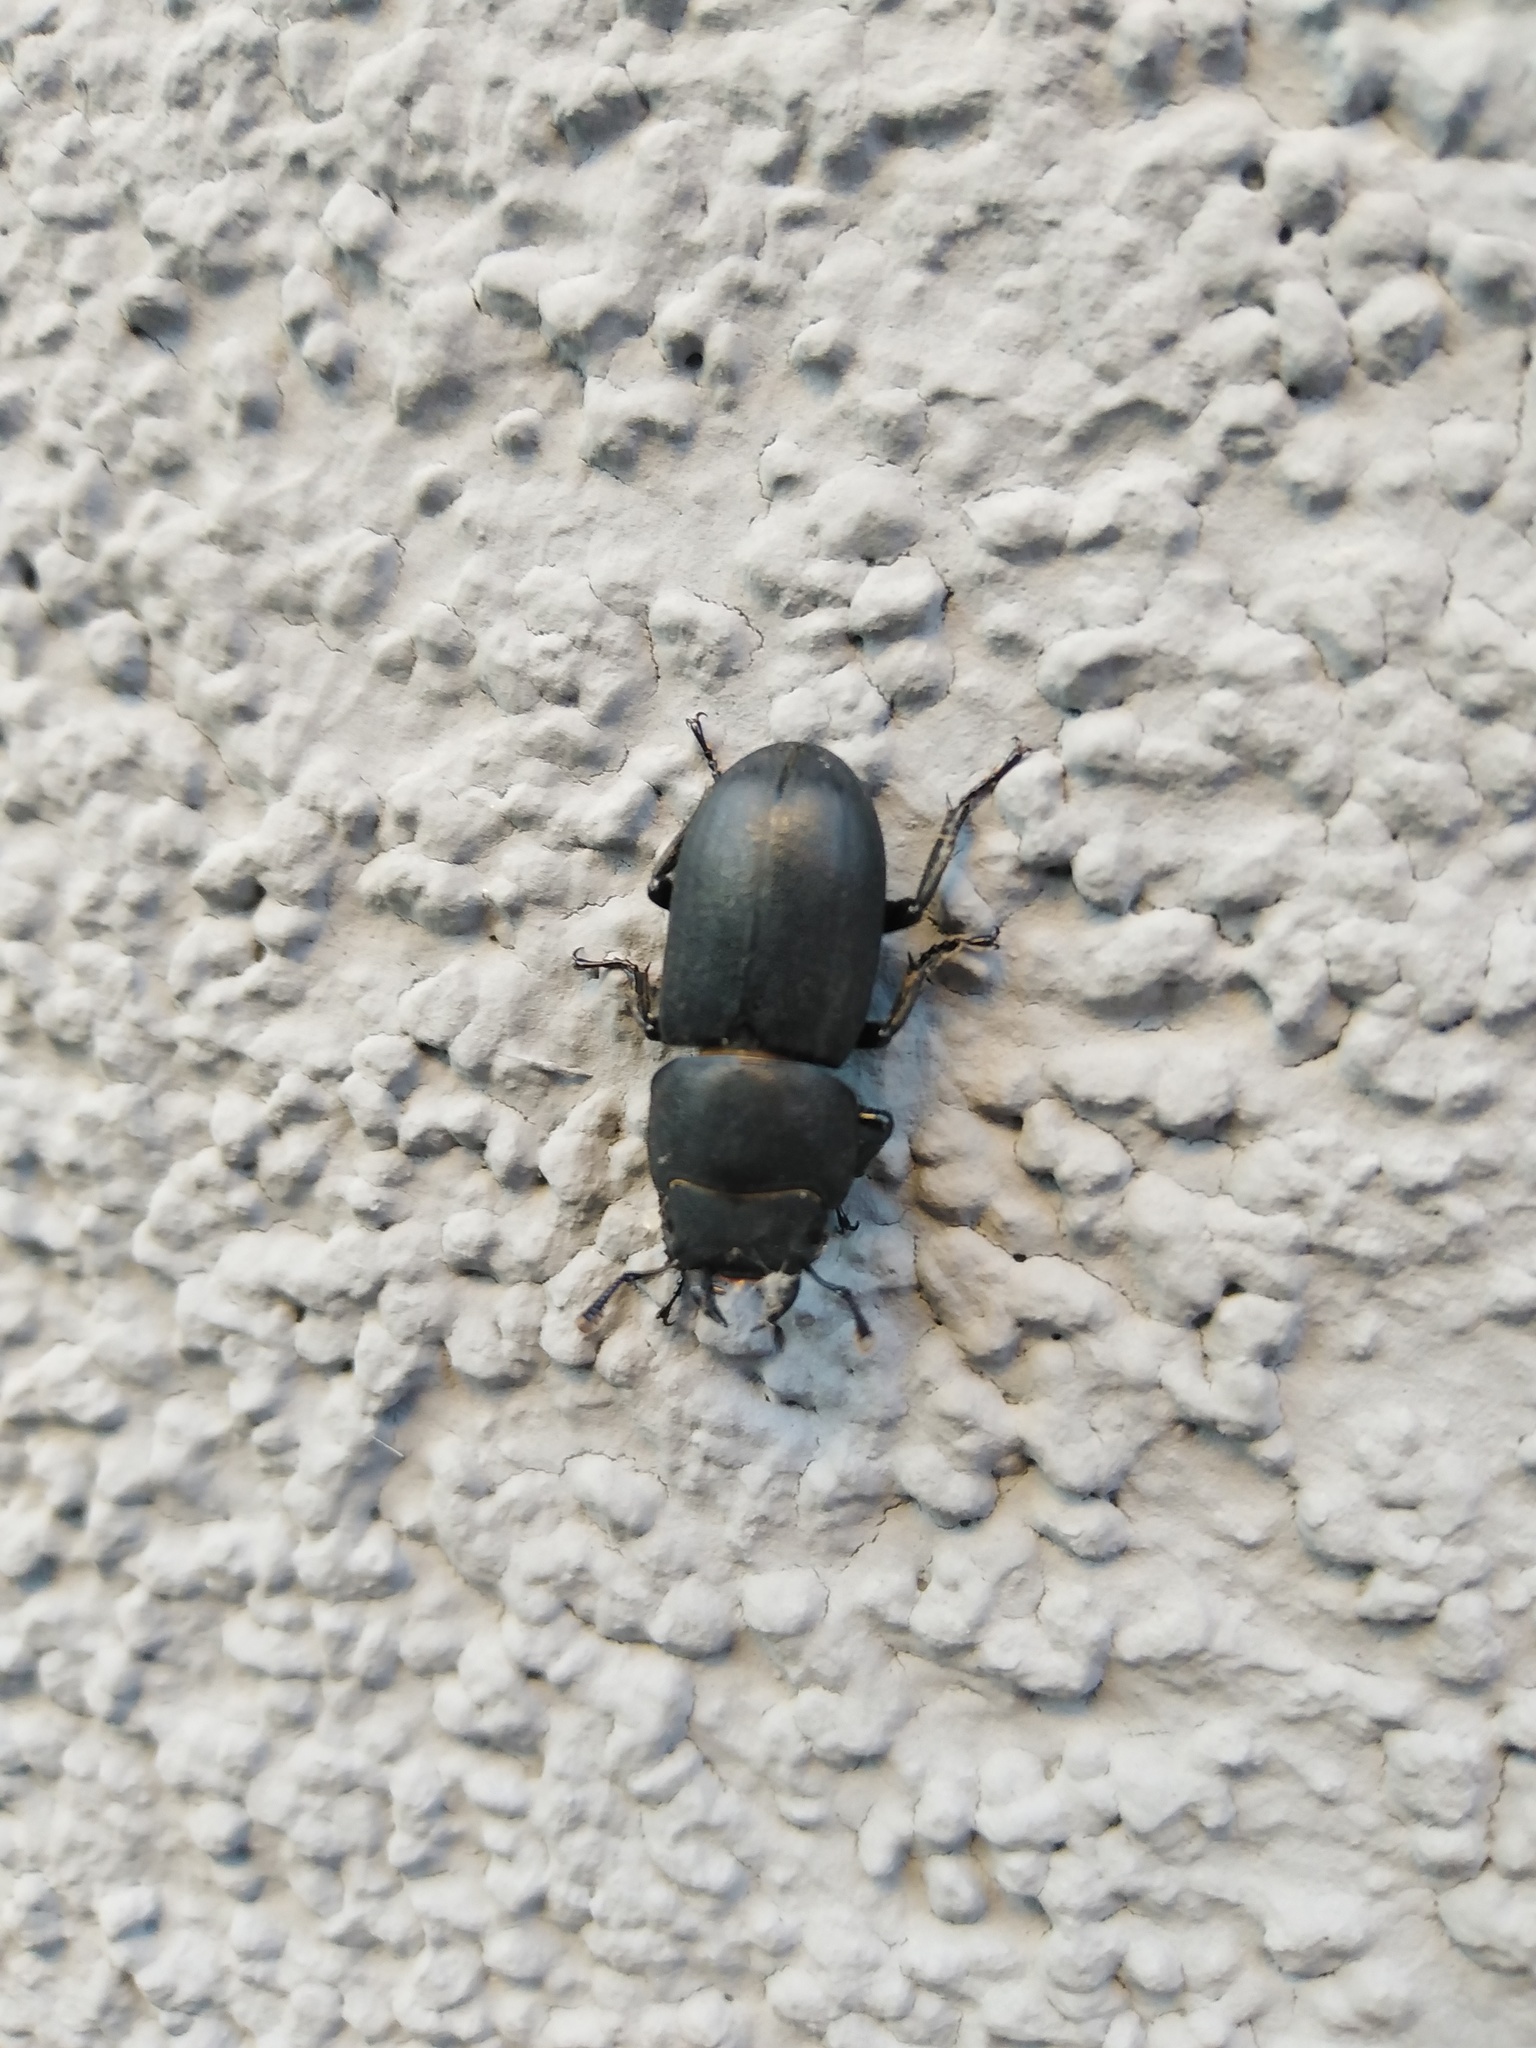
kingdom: Animalia
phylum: Arthropoda
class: Insecta
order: Coleoptera
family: Lucanidae
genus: Dorcus
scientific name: Dorcus parallelipipedus
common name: Lesser stag beetle
